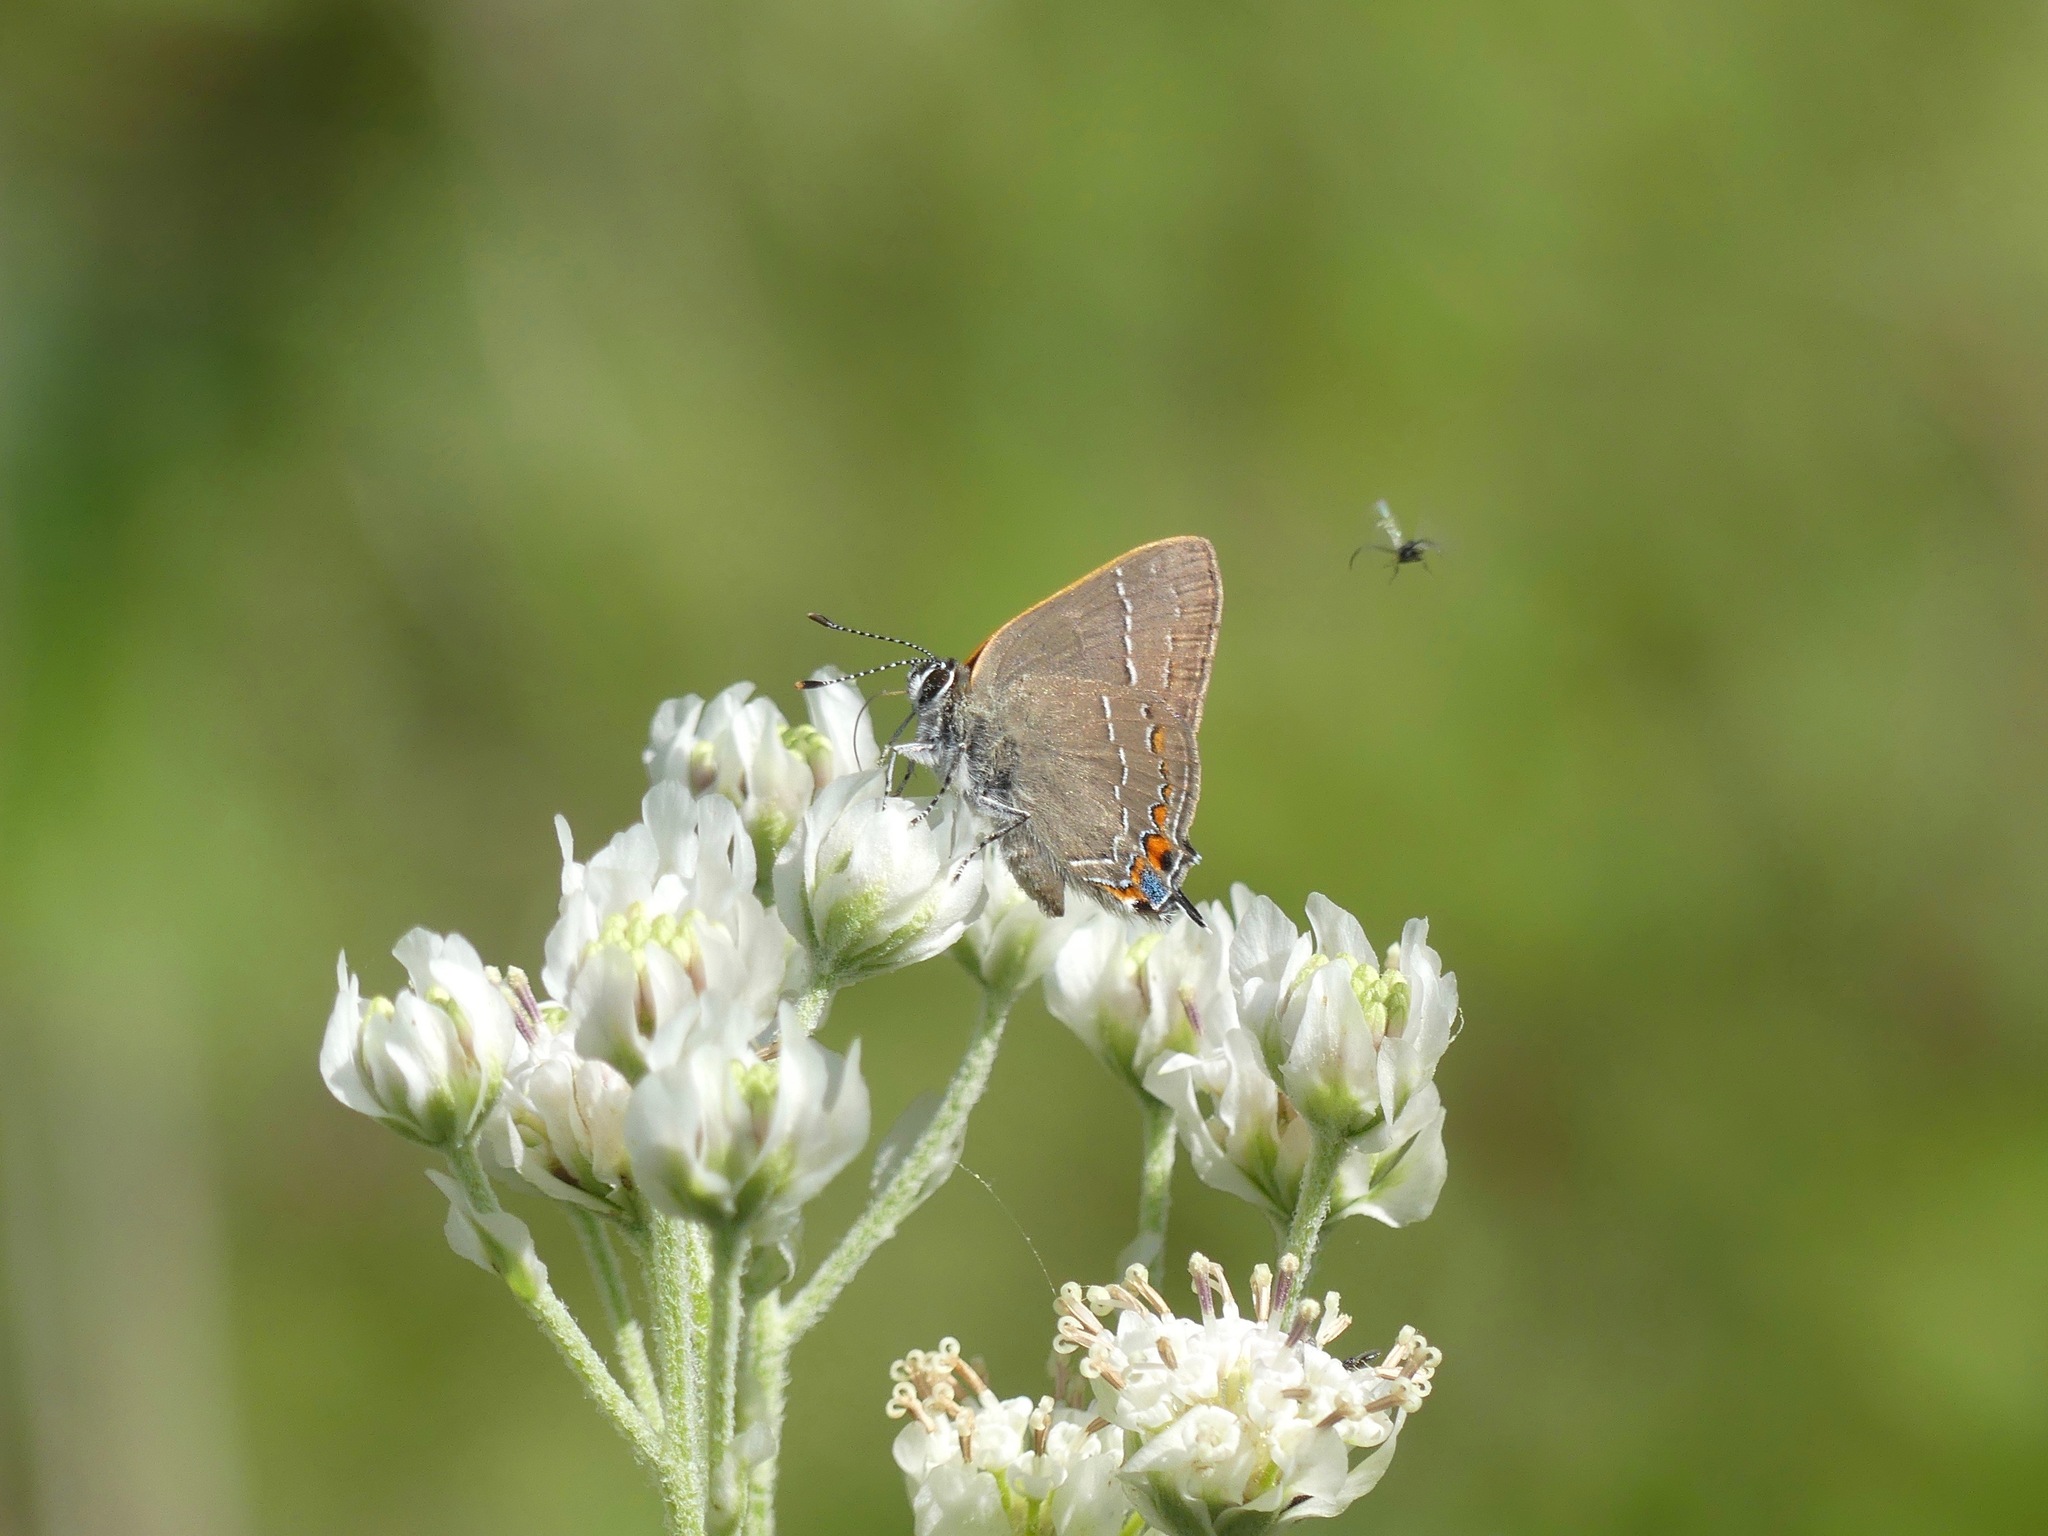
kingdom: Animalia
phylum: Arthropoda
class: Insecta
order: Lepidoptera
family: Lycaenidae
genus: Fixsenia
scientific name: Fixsenia ontario
